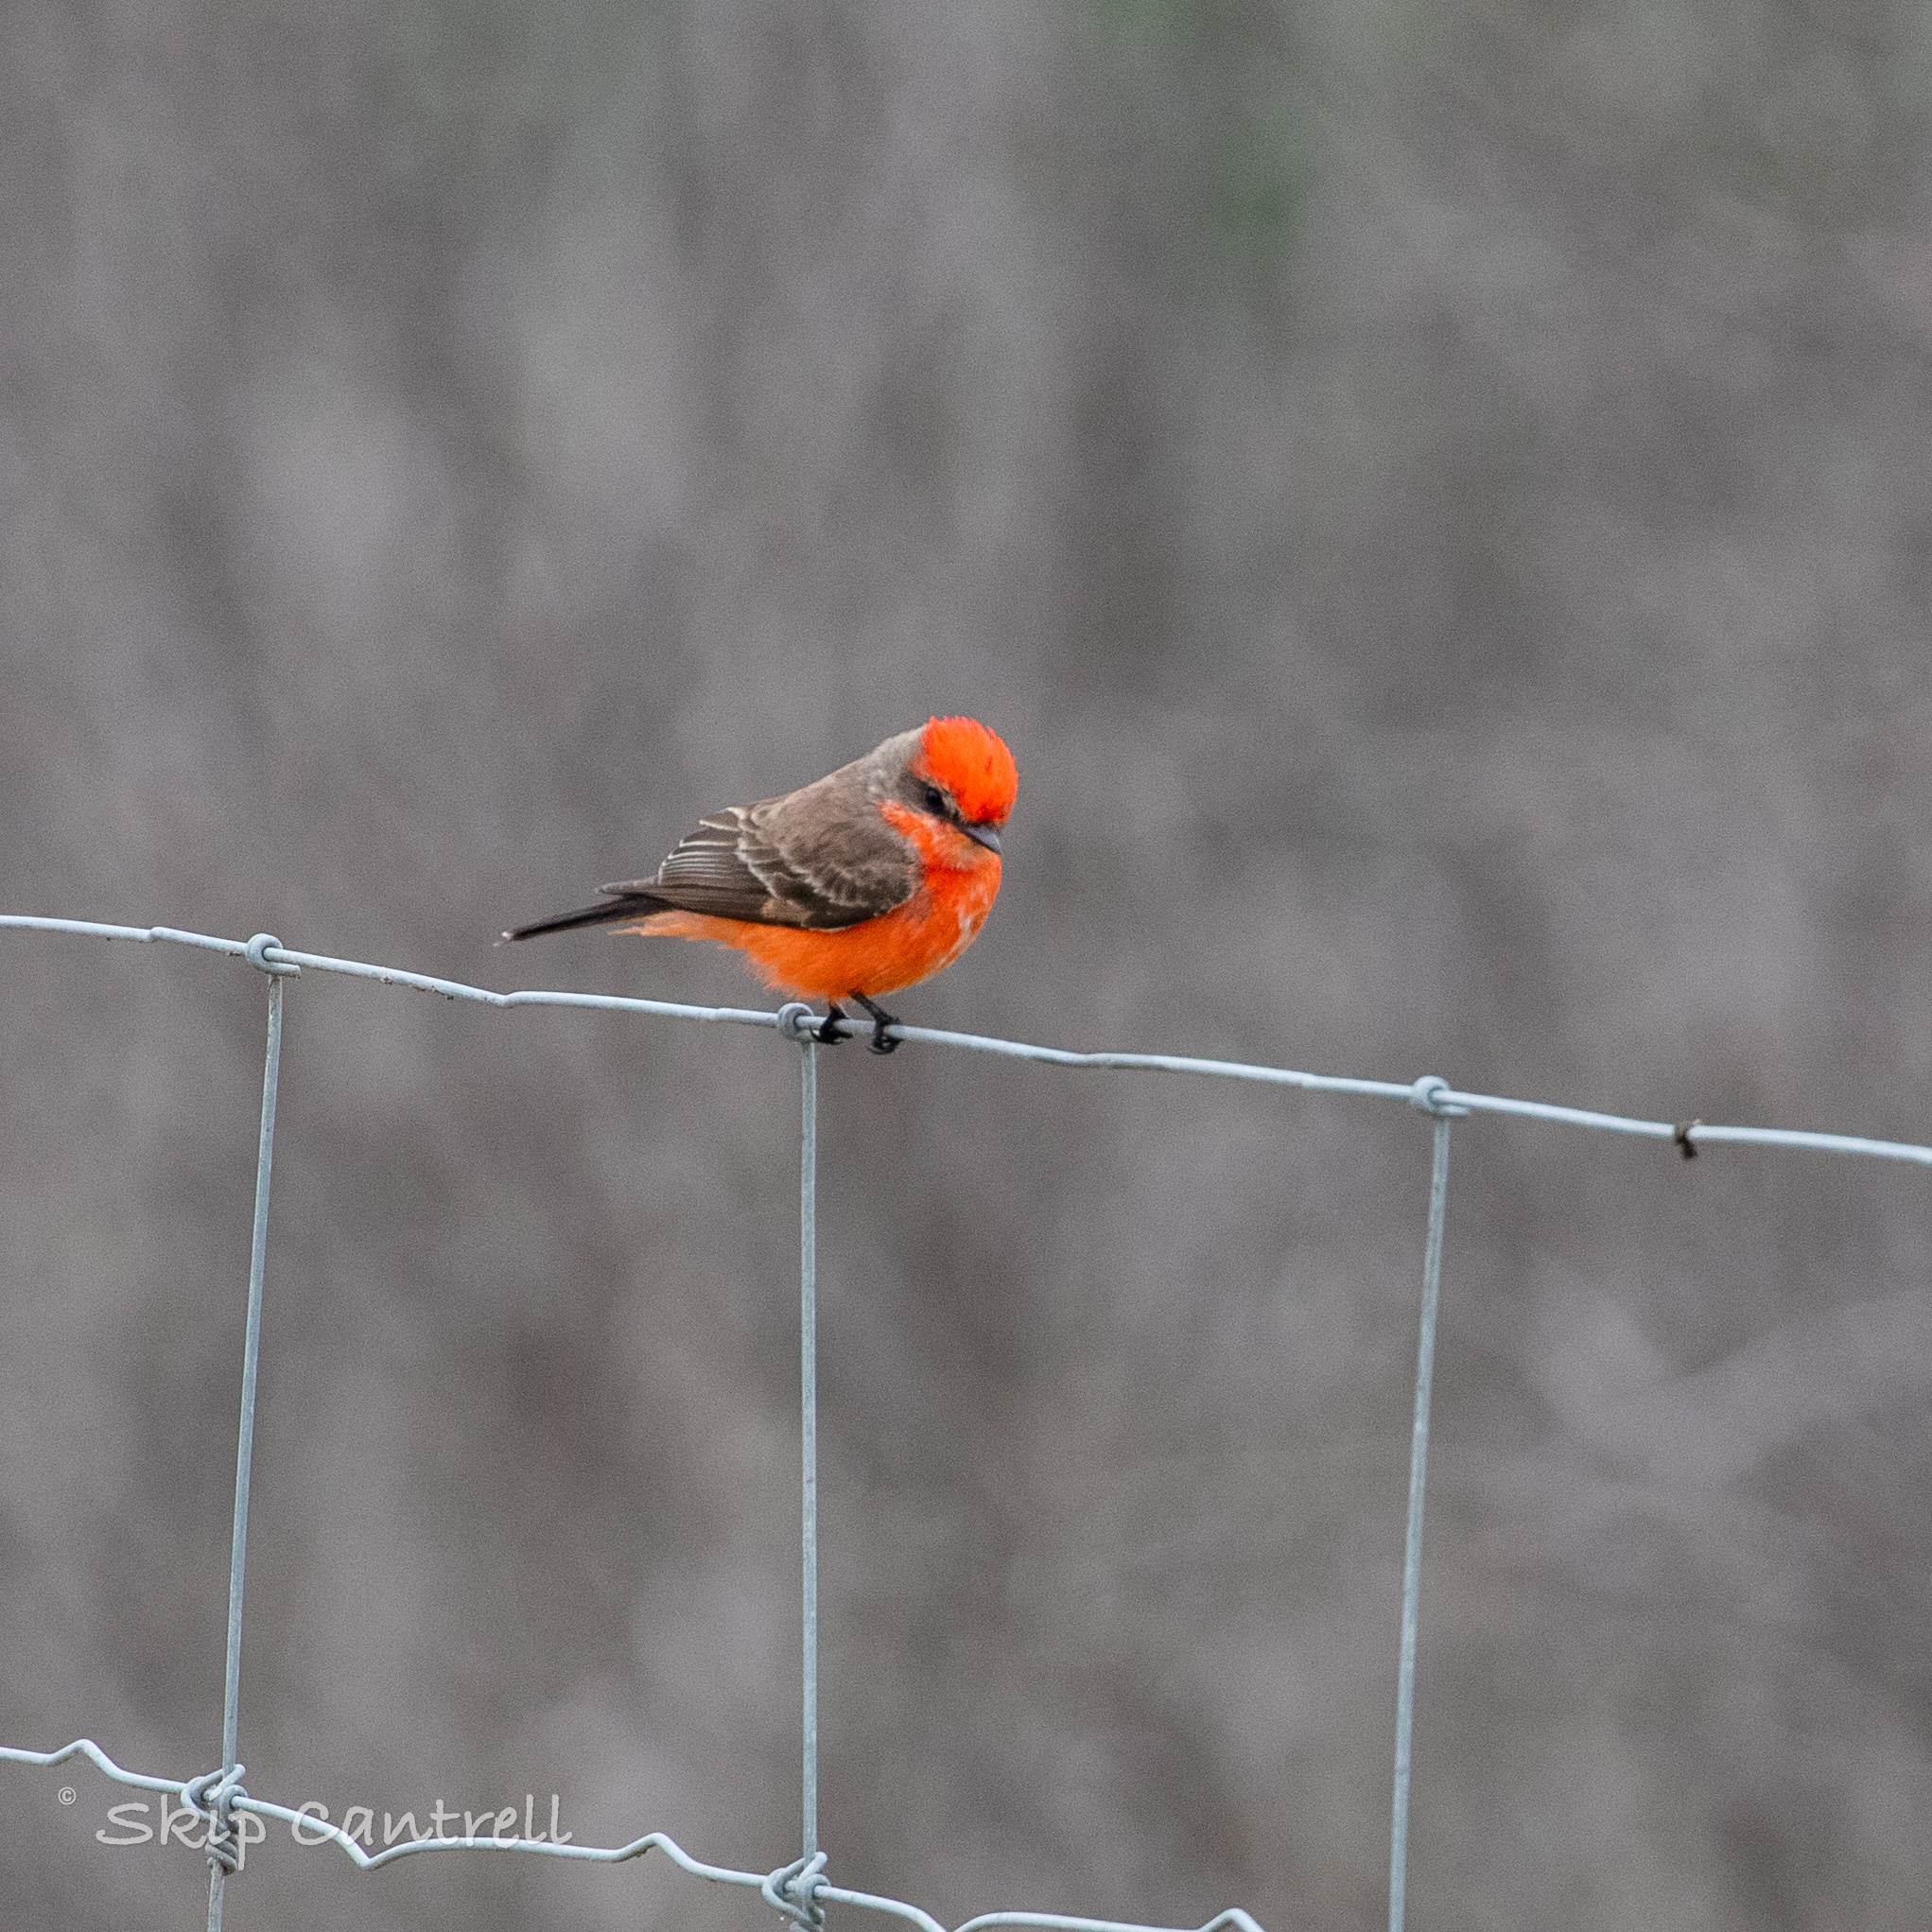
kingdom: Animalia
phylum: Chordata
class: Aves
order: Passeriformes
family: Tyrannidae
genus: Pyrocephalus
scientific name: Pyrocephalus rubinus
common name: Vermilion flycatcher
